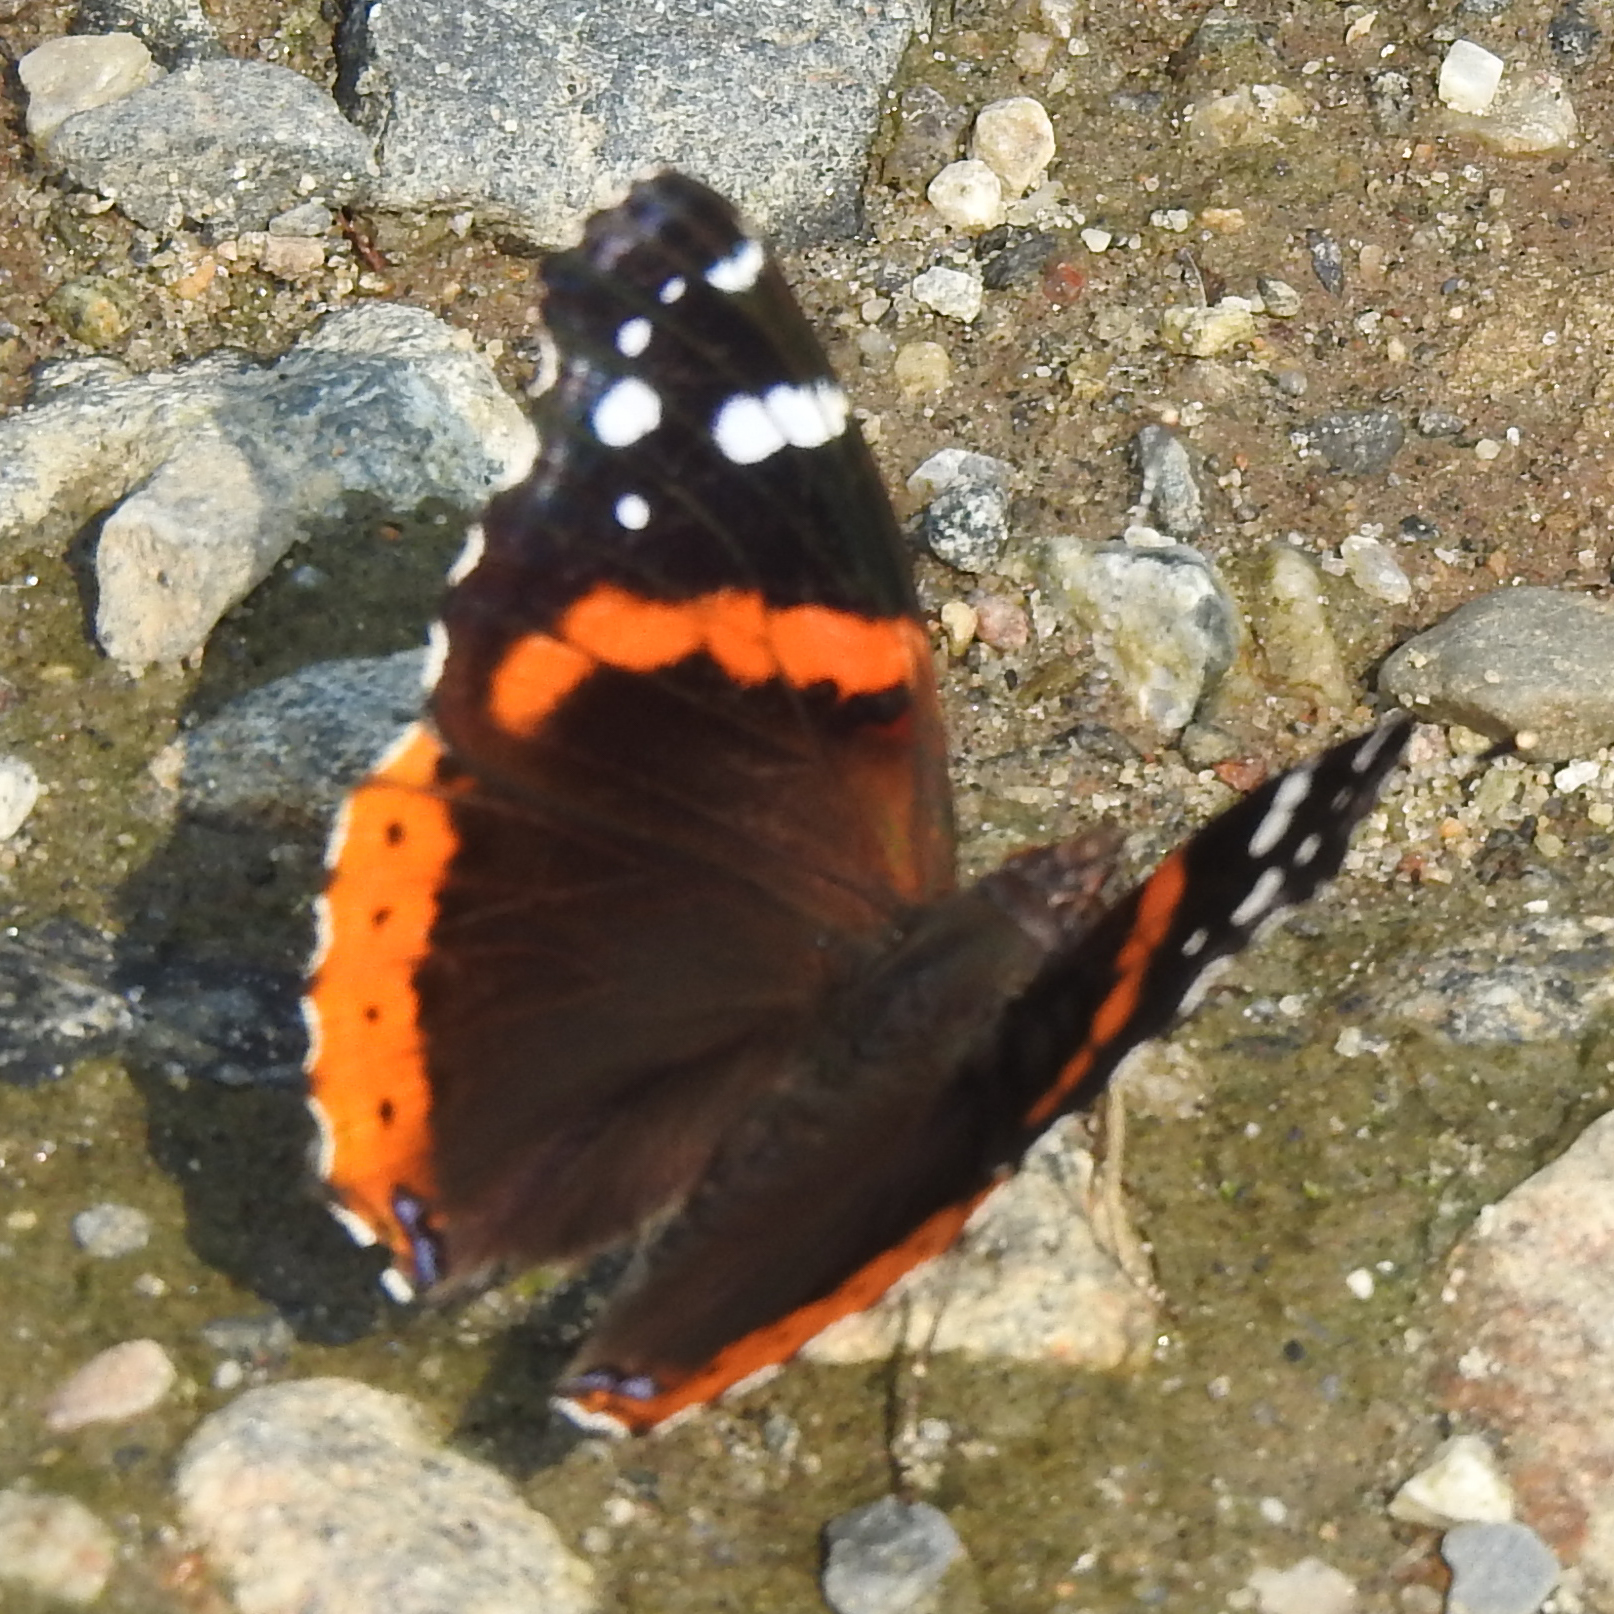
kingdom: Animalia
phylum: Arthropoda
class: Insecta
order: Lepidoptera
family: Nymphalidae
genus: Vanessa
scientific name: Vanessa atalanta
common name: Red admiral
